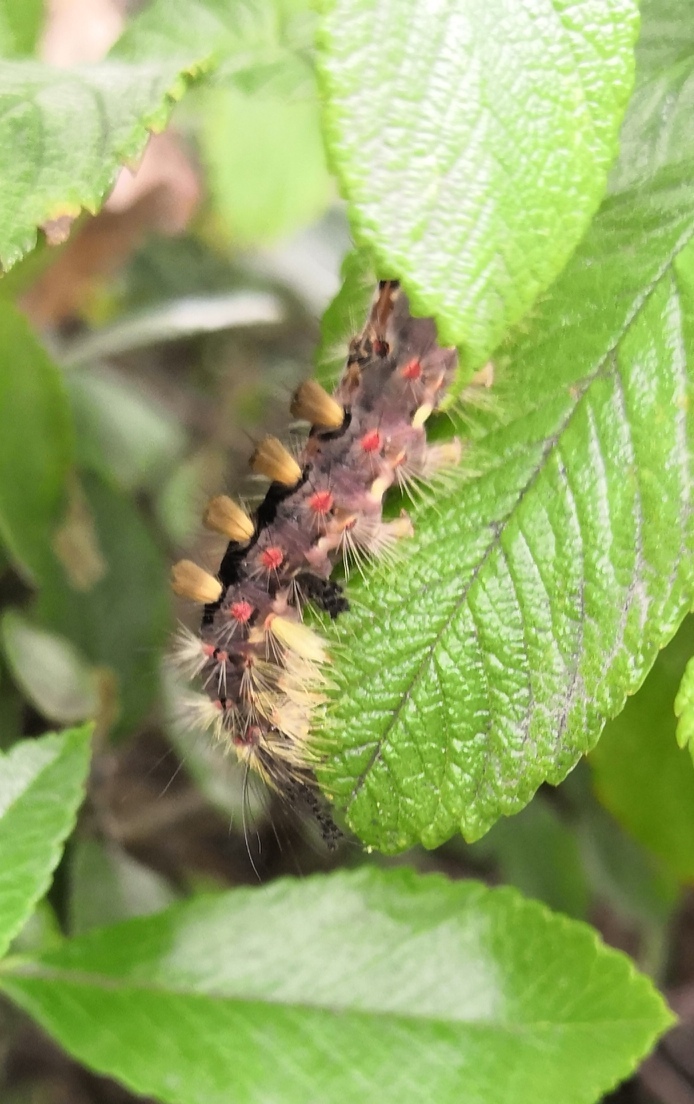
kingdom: Animalia
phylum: Arthropoda
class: Insecta
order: Lepidoptera
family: Erebidae
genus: Orgyia
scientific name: Orgyia antiqua
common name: Vapourer
